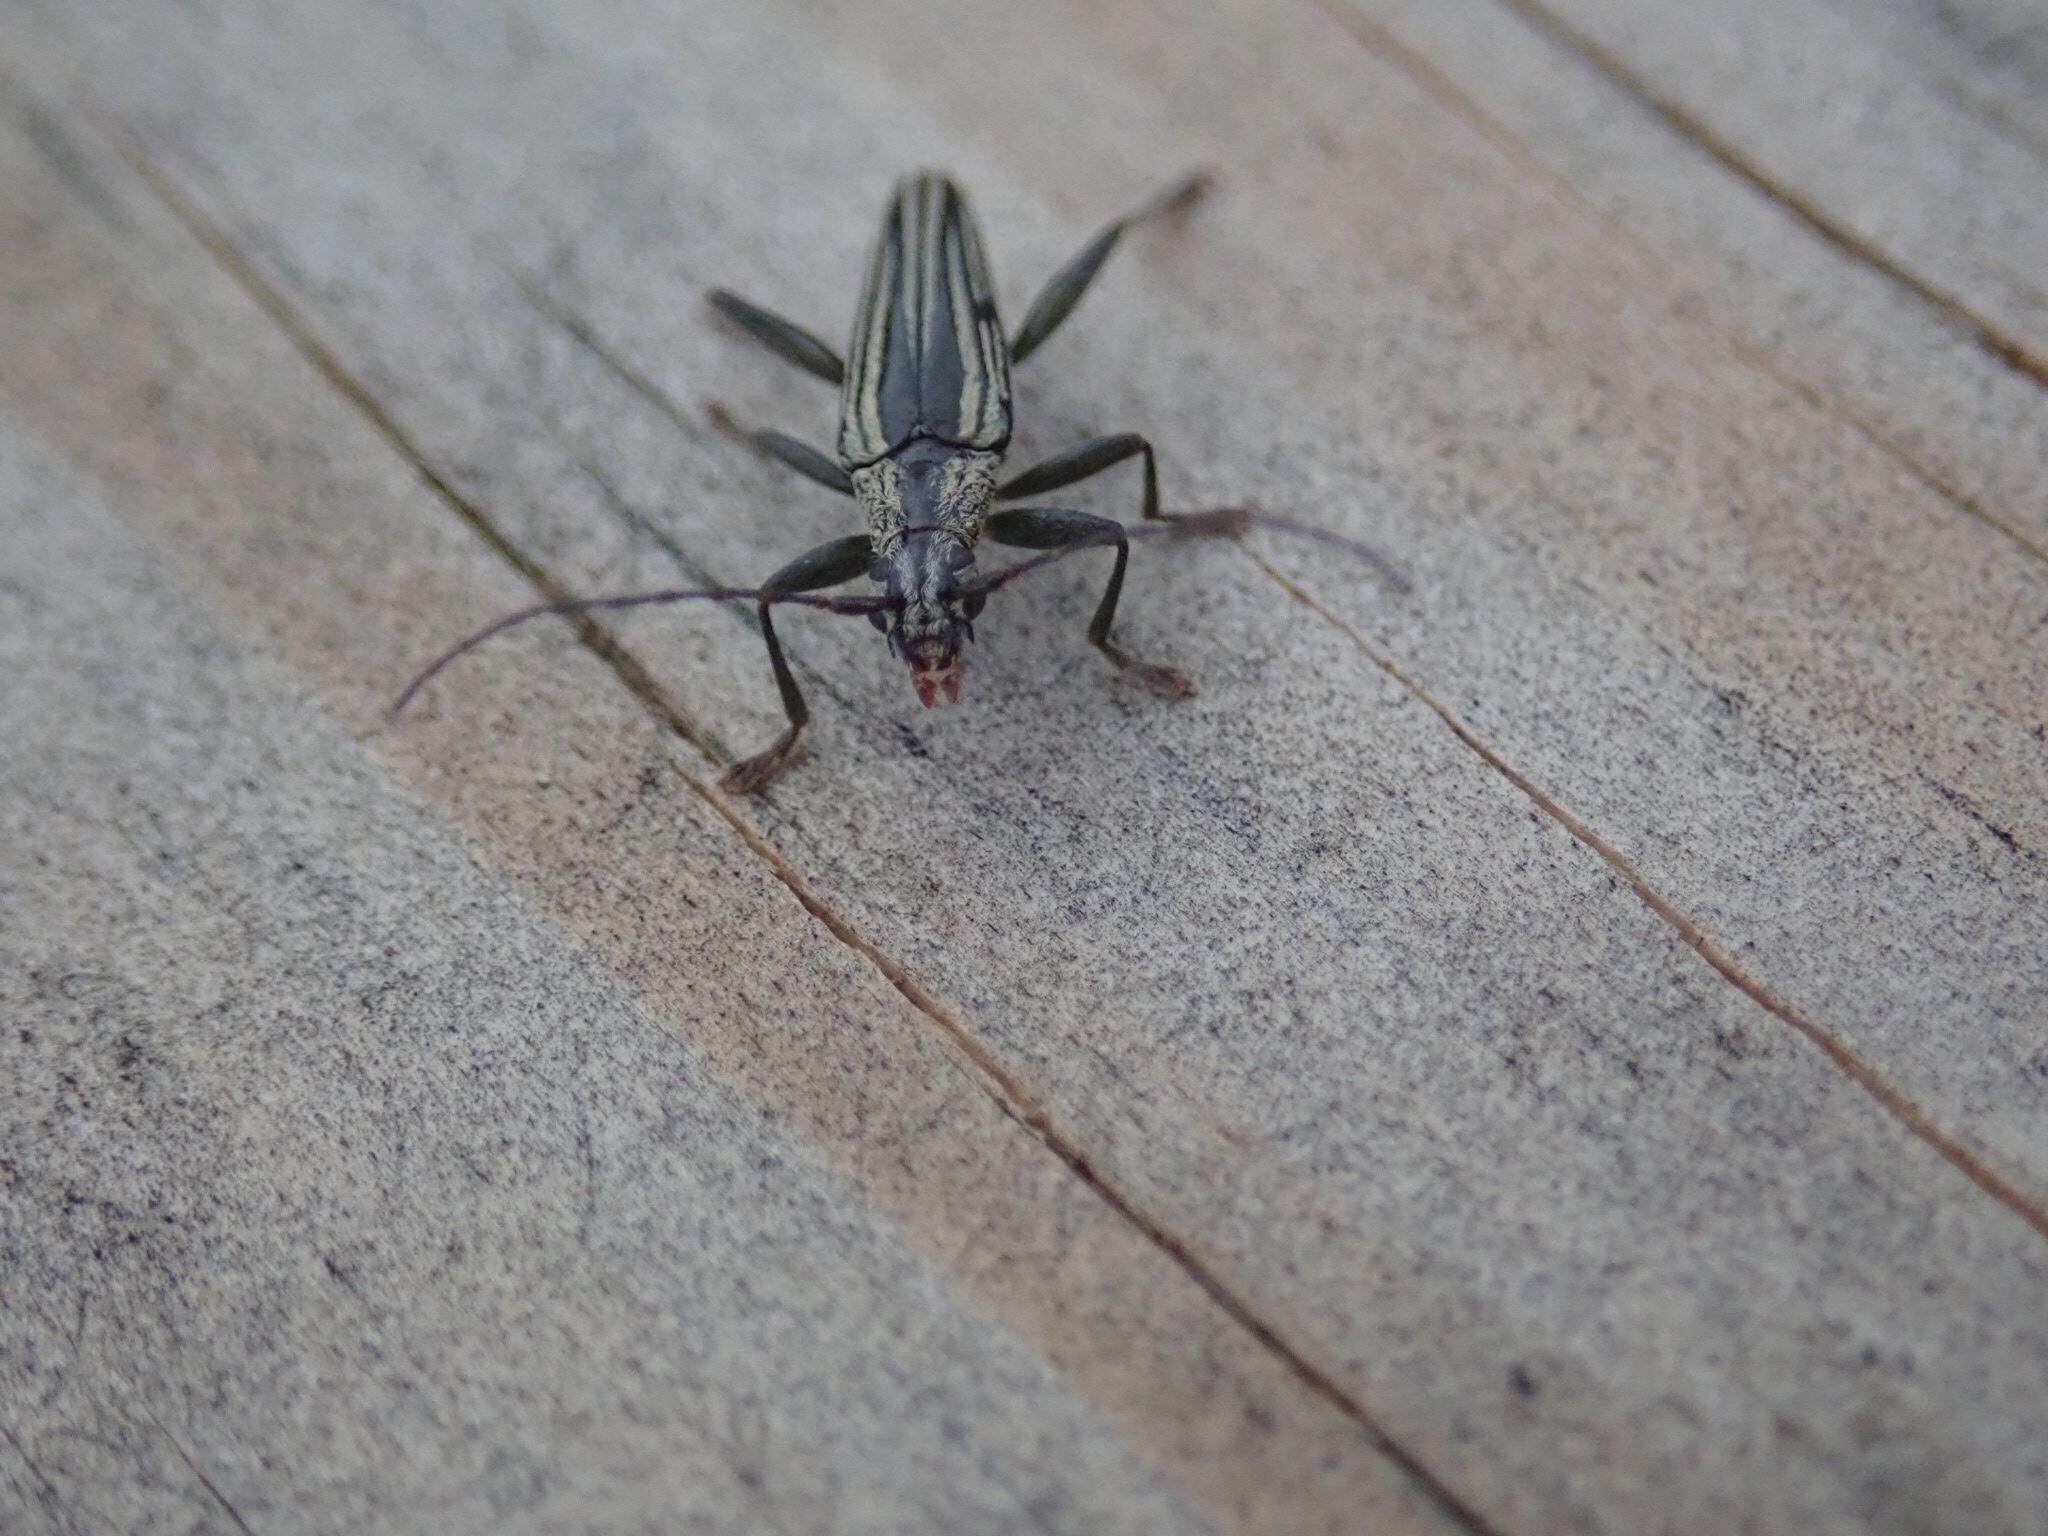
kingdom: Animalia
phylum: Arthropoda
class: Insecta
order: Coleoptera
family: Cerambycidae
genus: Coptomma
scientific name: Coptomma sulcatum
